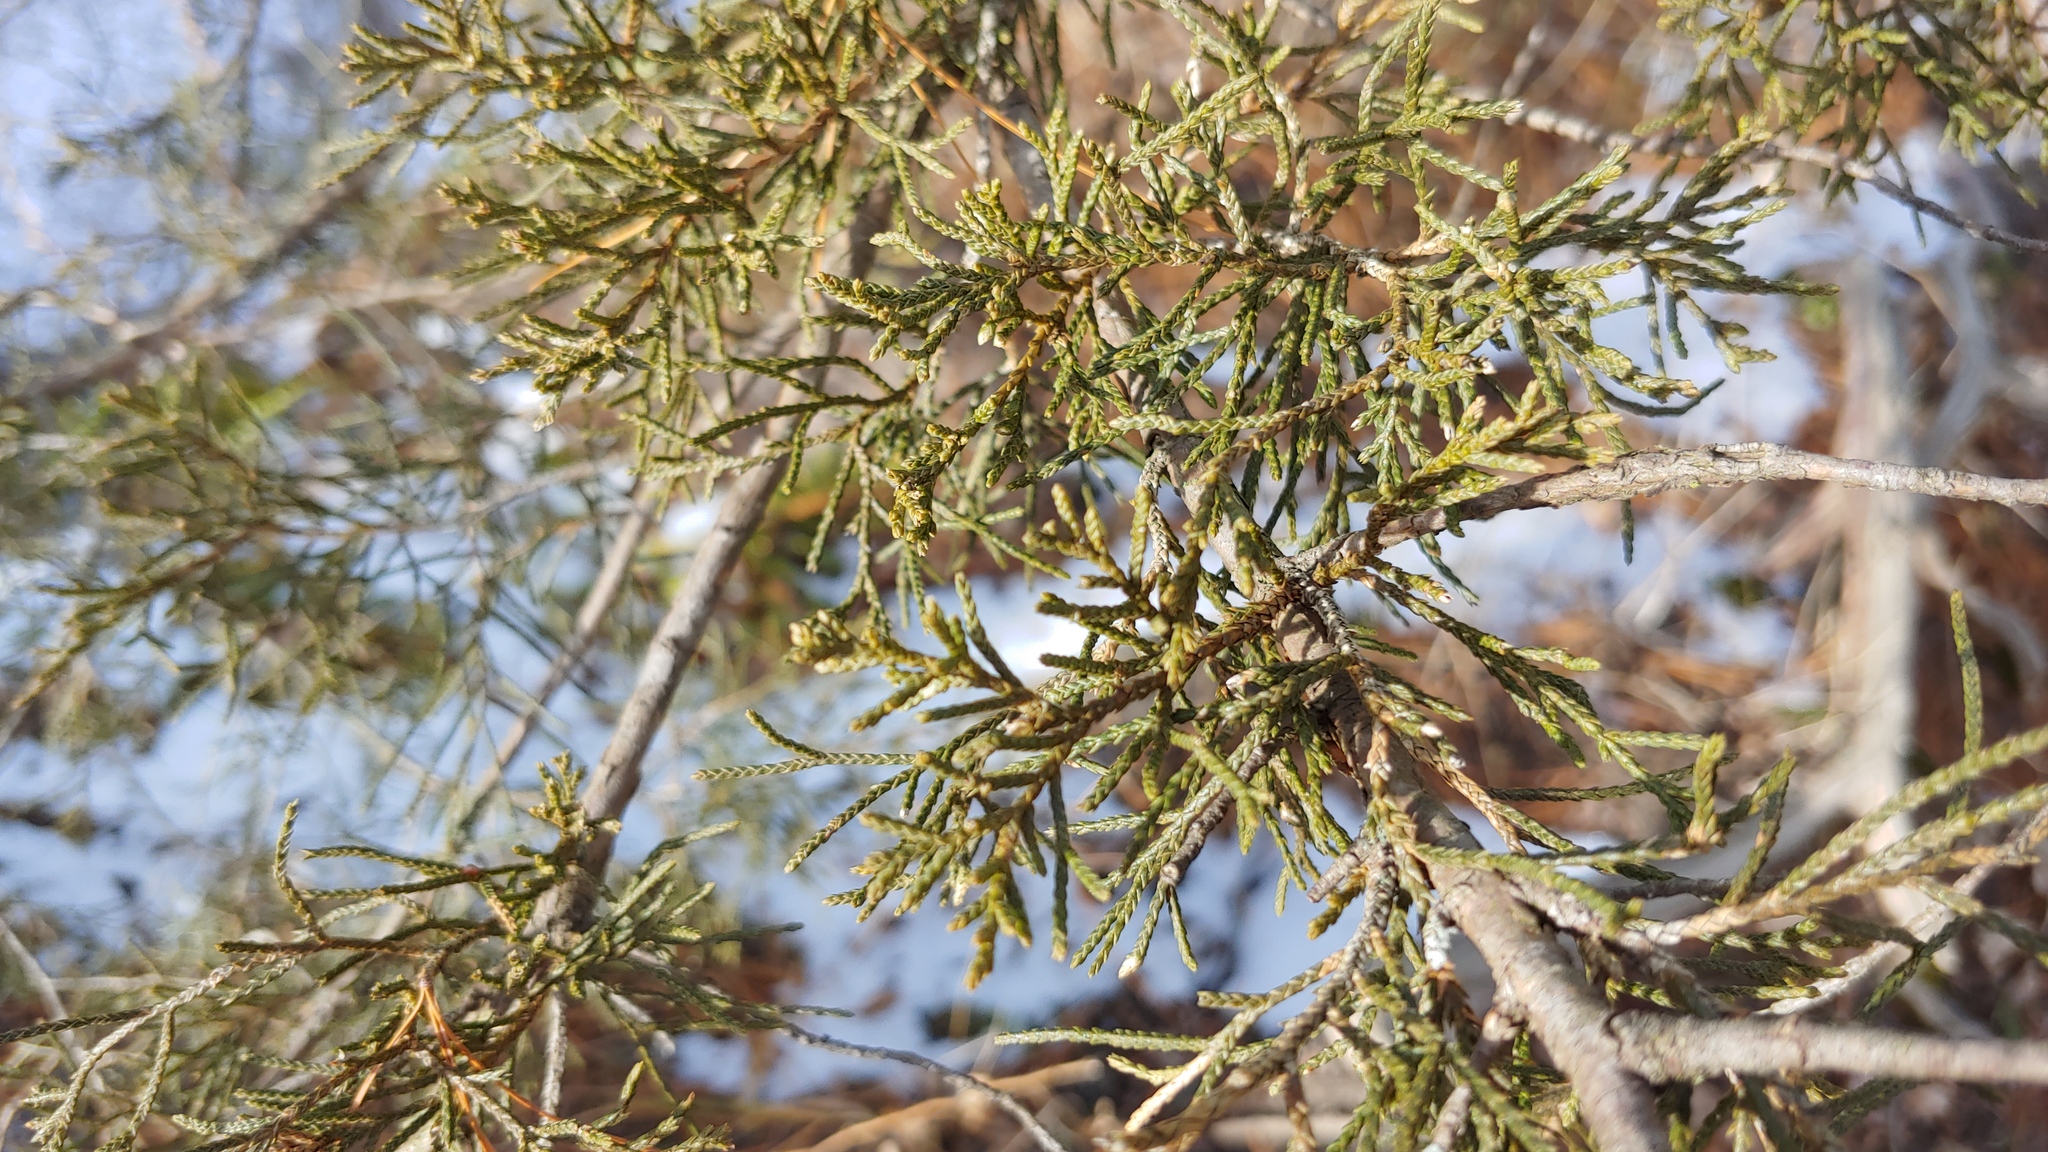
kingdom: Plantae
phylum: Tracheophyta
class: Pinopsida
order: Pinales
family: Cupressaceae
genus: Juniperus
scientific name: Juniperus virginiana
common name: Red juniper
